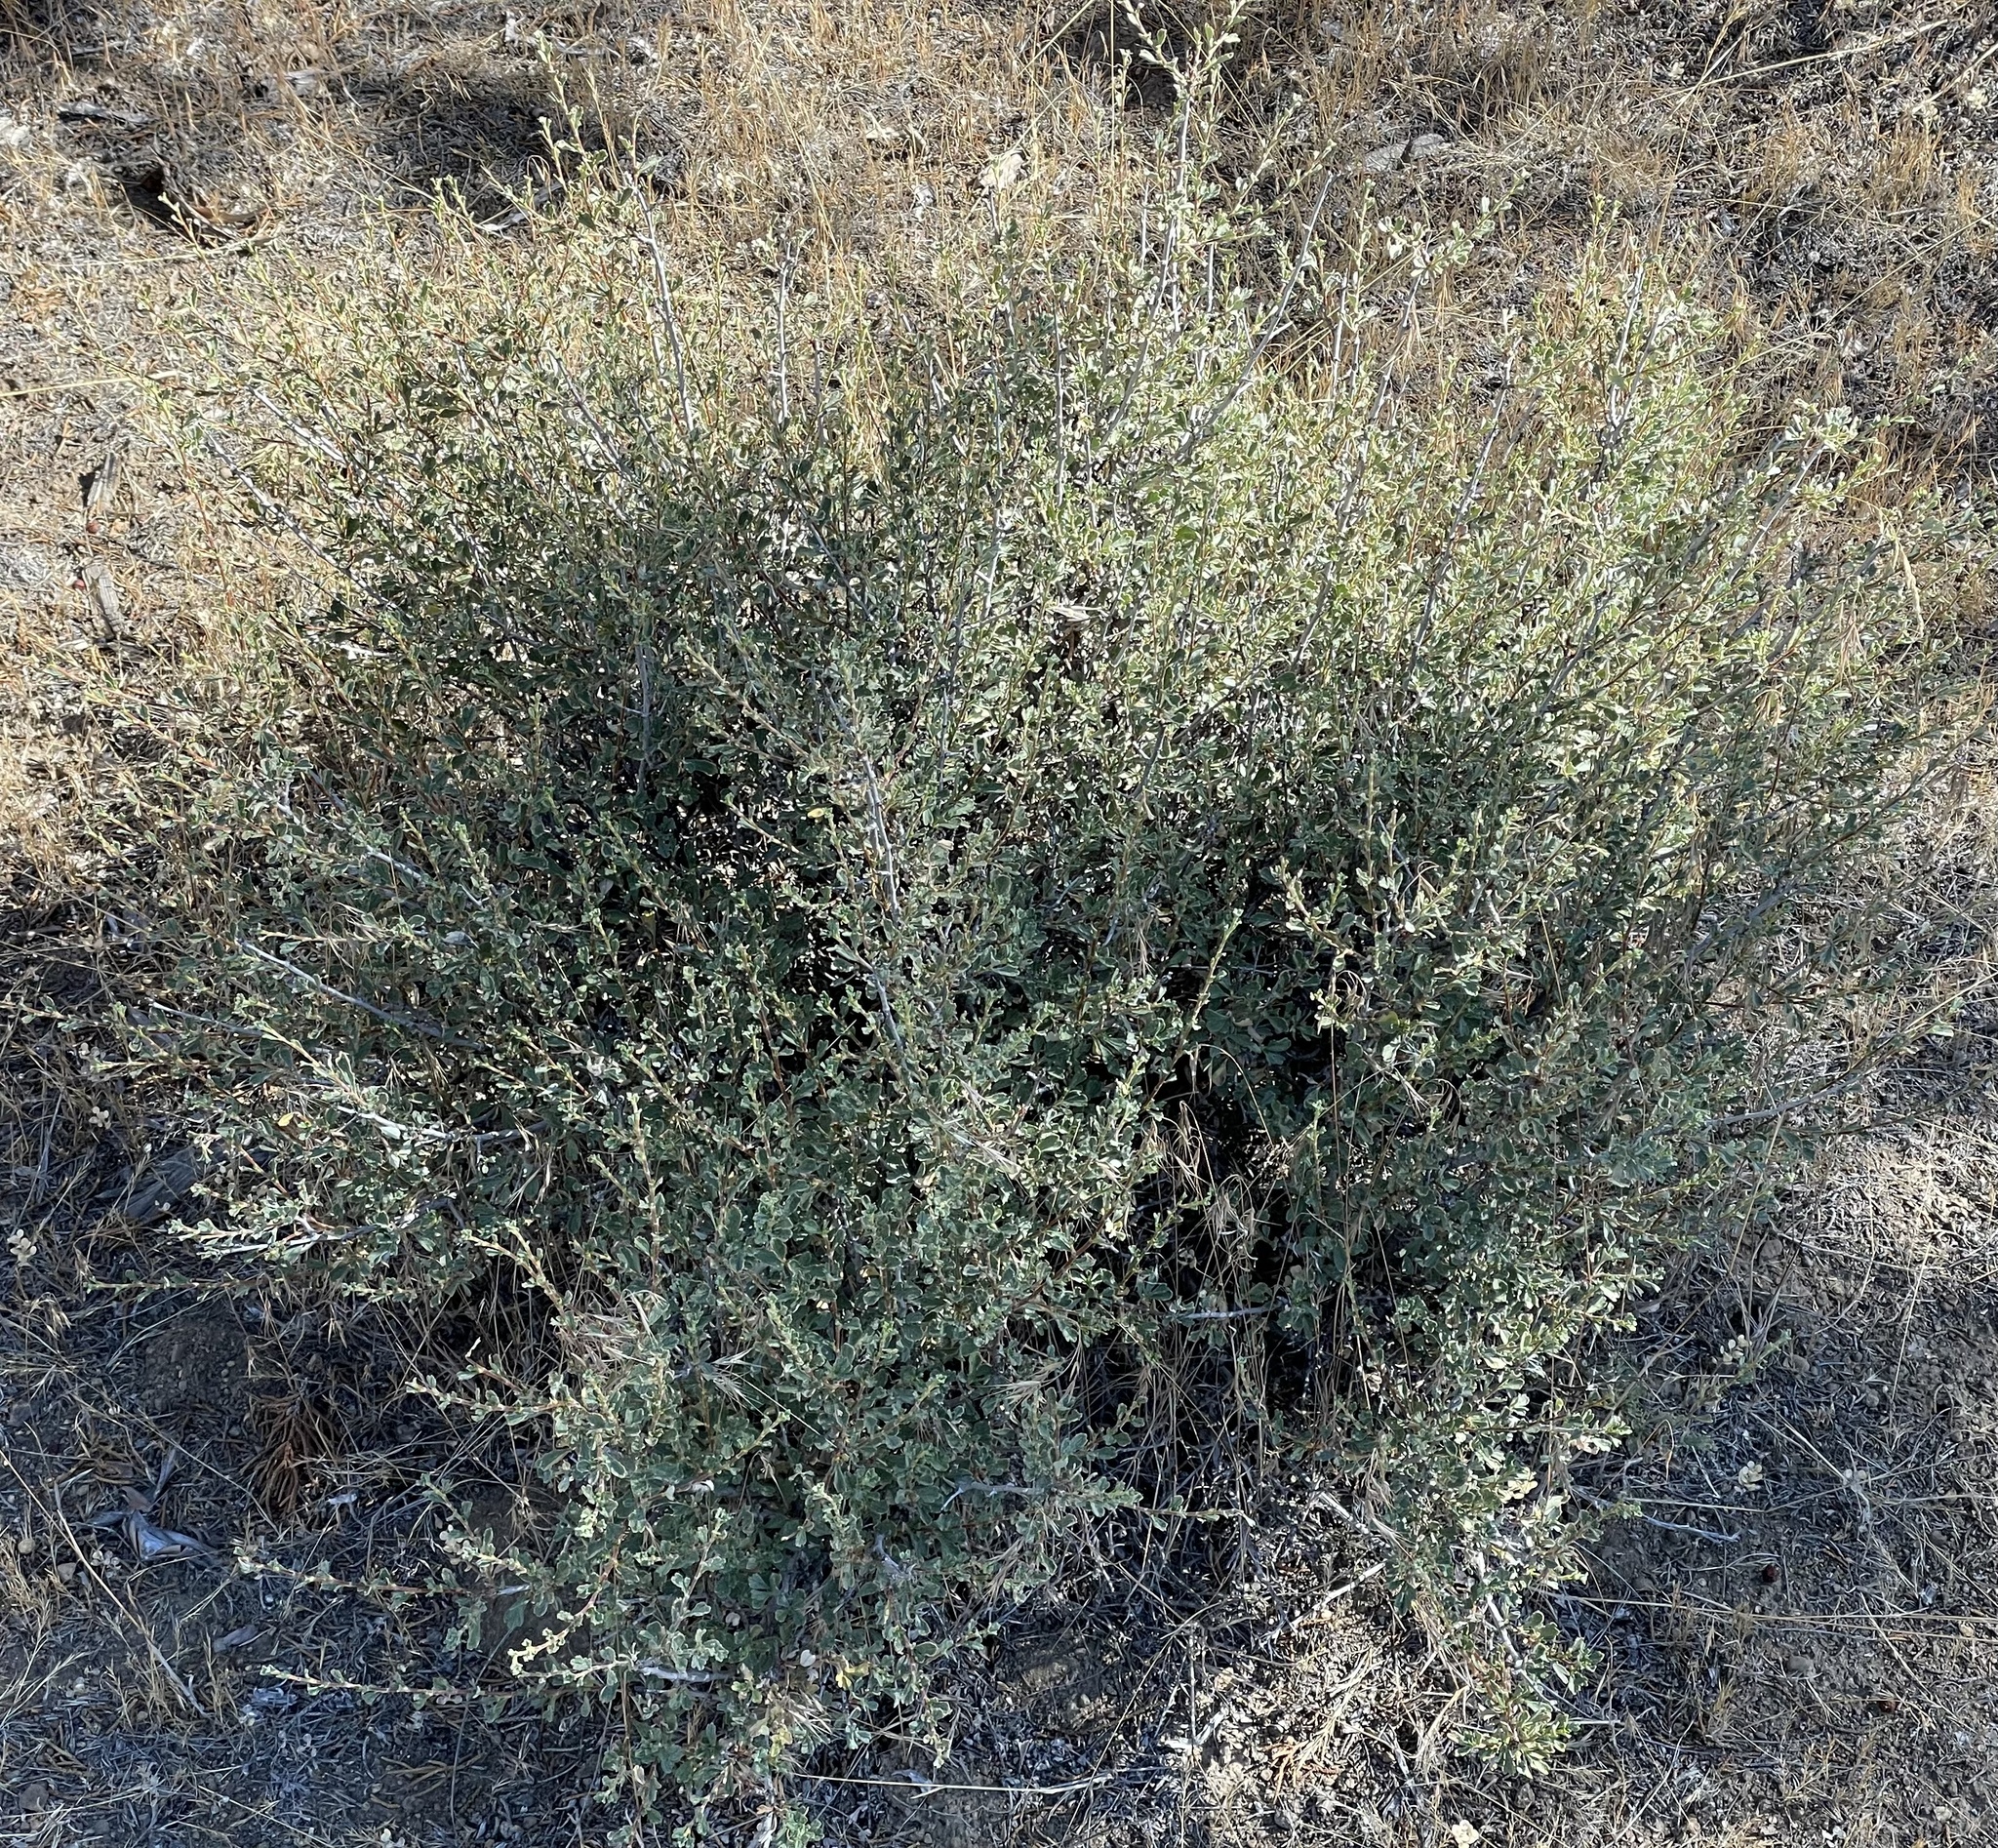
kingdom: Plantae
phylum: Tracheophyta
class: Magnoliopsida
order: Rosales
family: Rosaceae
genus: Purshia
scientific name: Purshia tridentata
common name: Antelope bitterbrush
